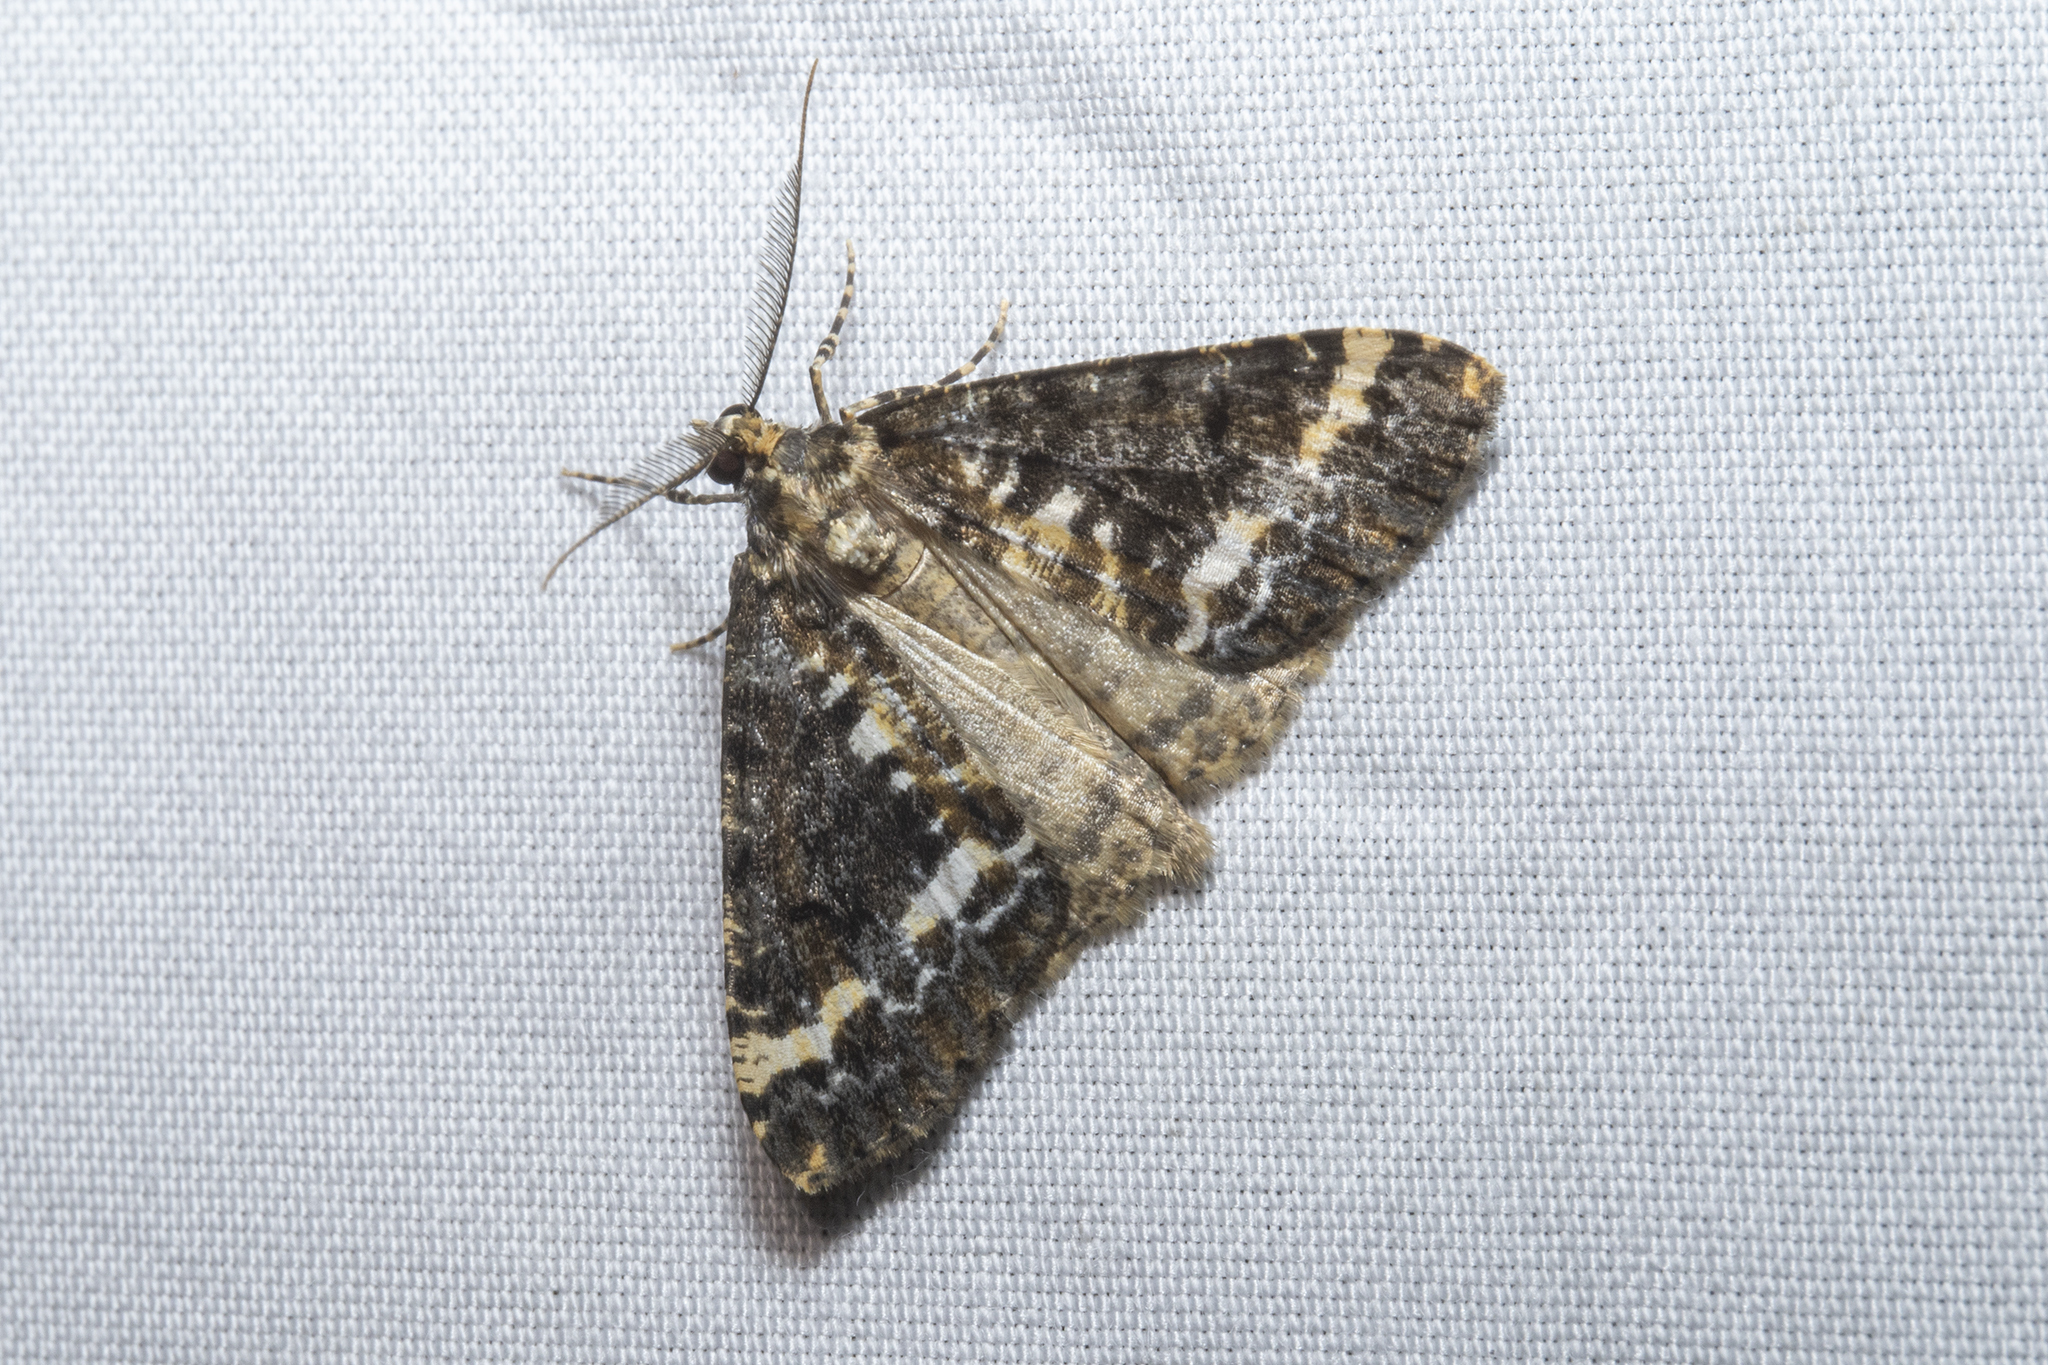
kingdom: Animalia
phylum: Arthropoda
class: Insecta
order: Lepidoptera
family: Geometridae
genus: Pseudocoremia
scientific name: Pseudocoremia leucelaea
